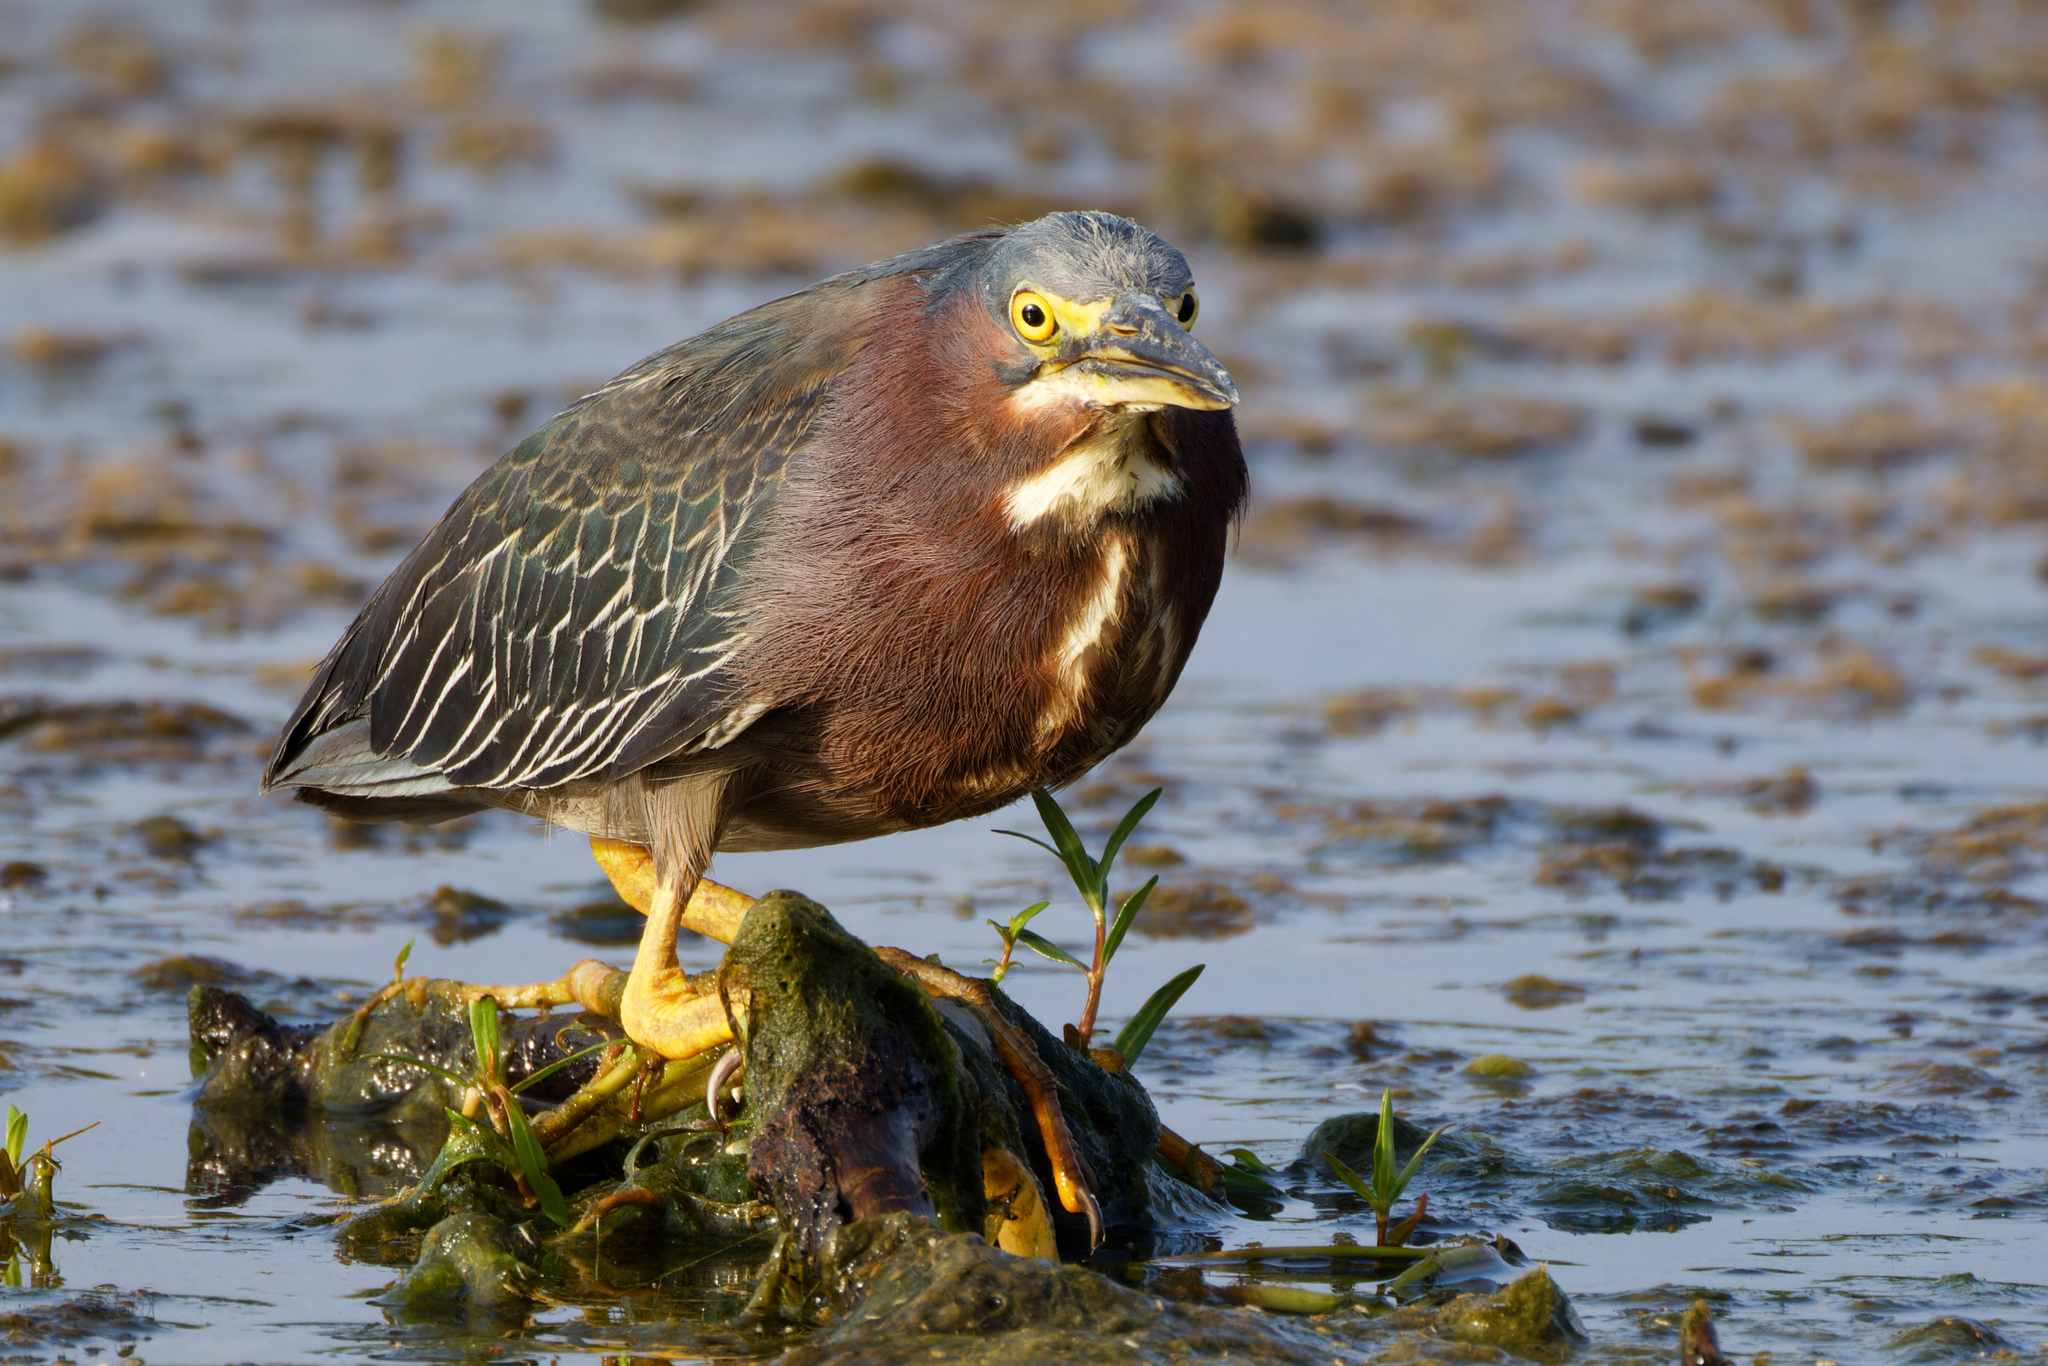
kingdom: Animalia
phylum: Chordata
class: Aves
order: Pelecaniformes
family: Ardeidae
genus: Butorides
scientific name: Butorides virescens
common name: Green heron
